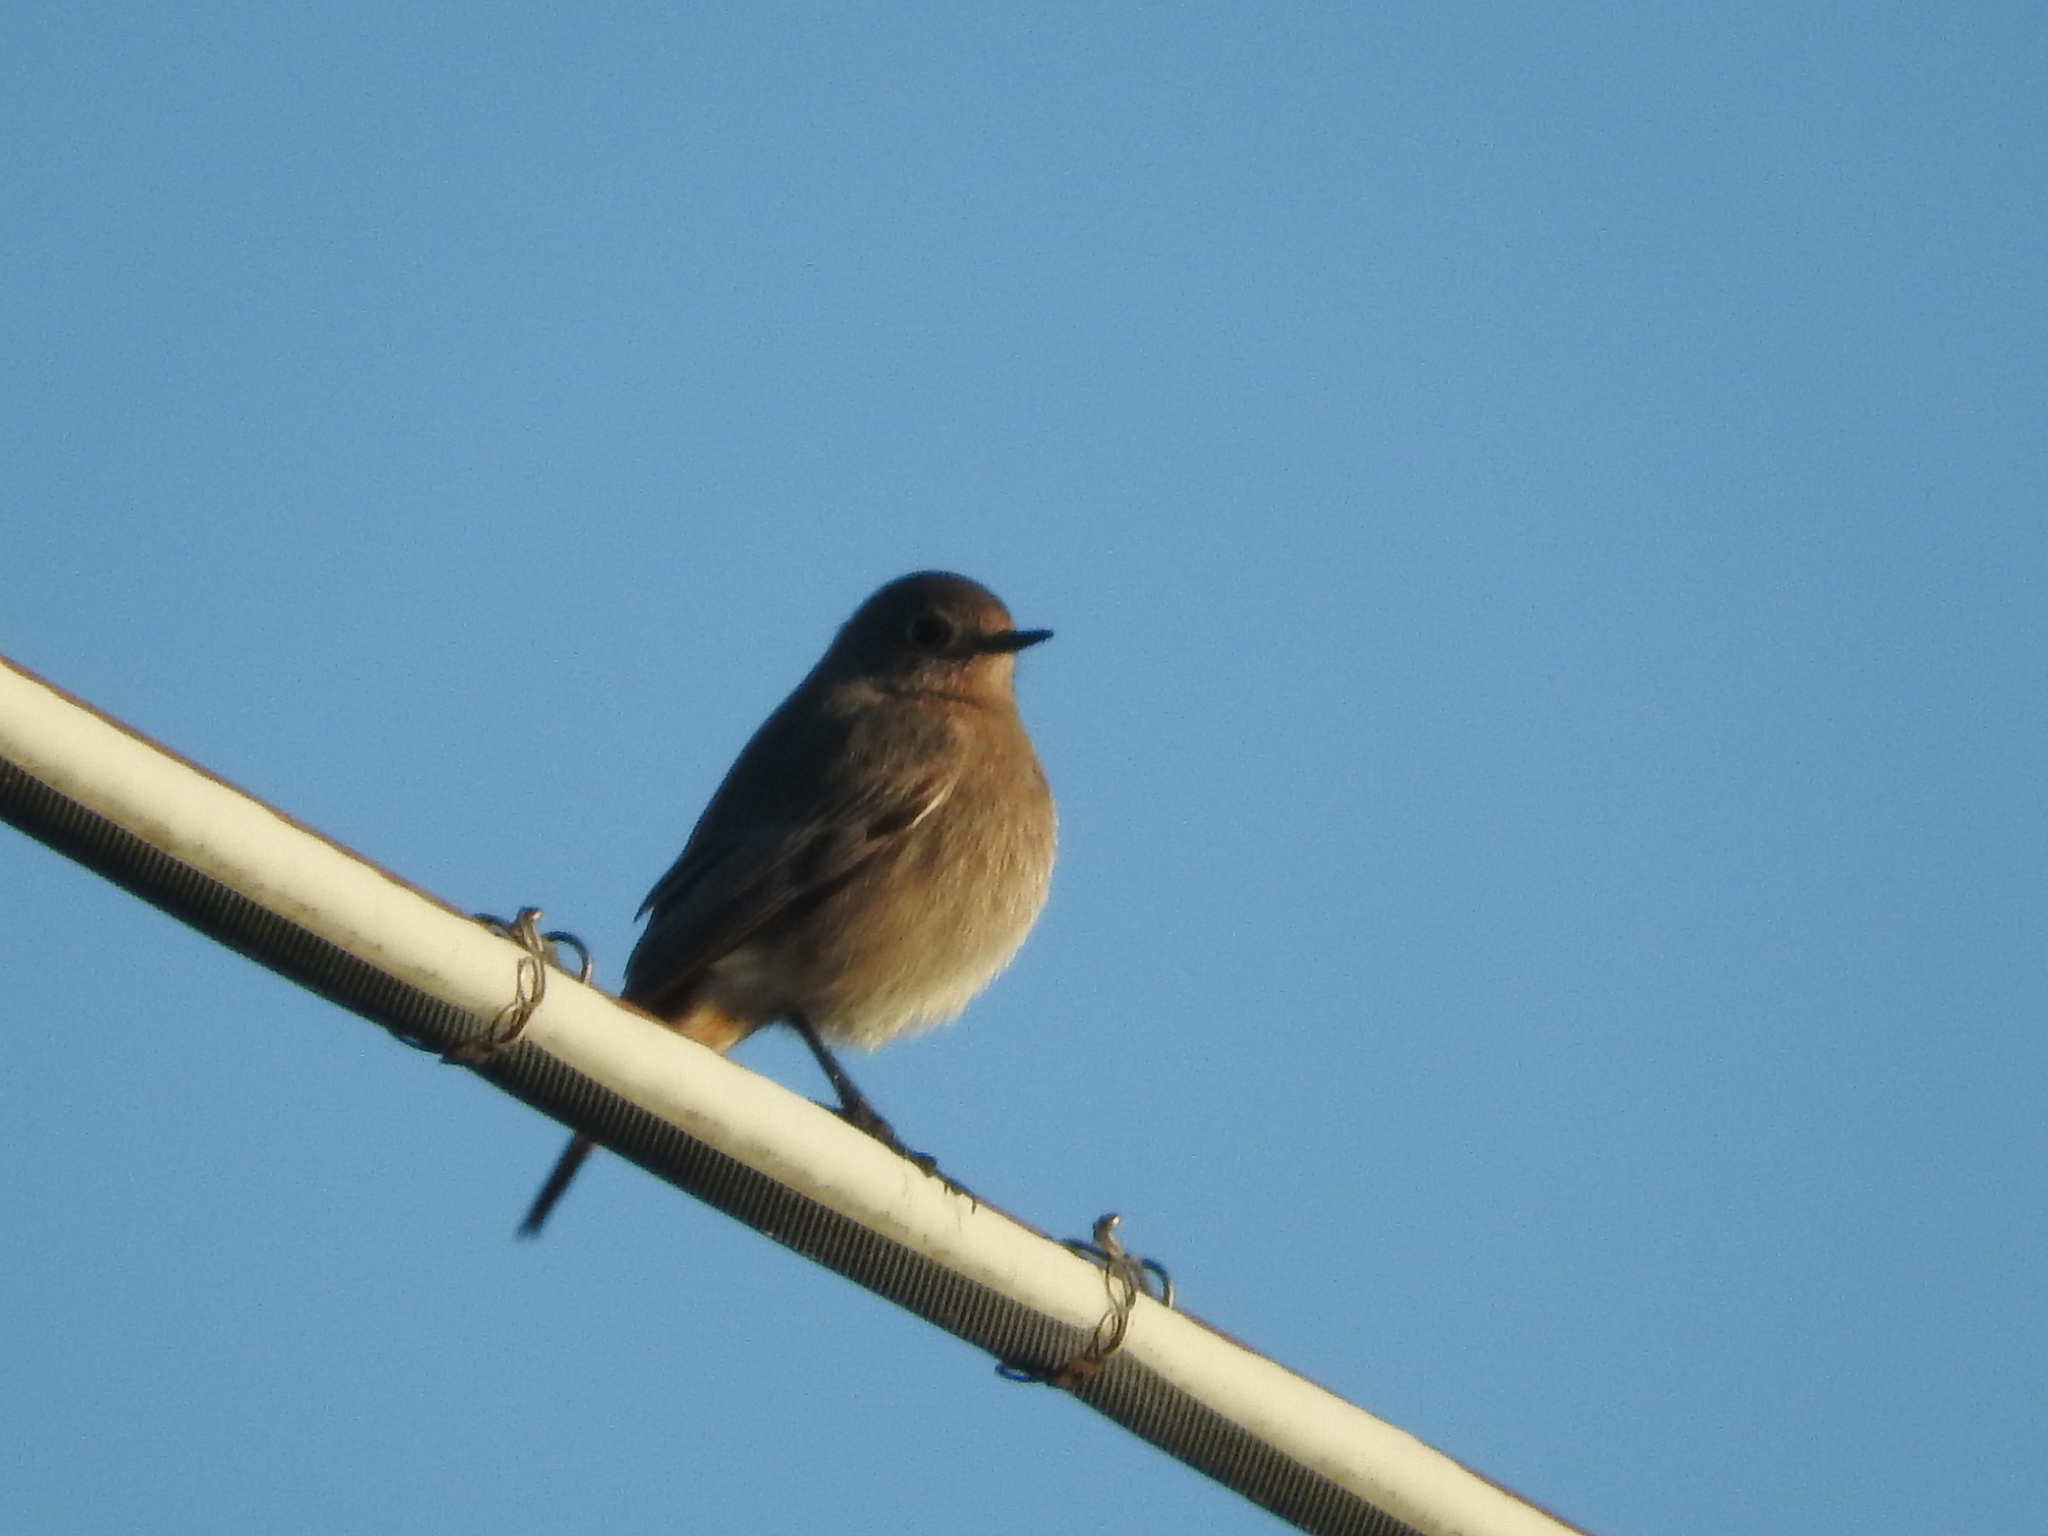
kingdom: Animalia
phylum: Chordata
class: Aves
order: Passeriformes
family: Muscicapidae
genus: Phoenicurus
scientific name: Phoenicurus ochruros
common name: Black redstart
